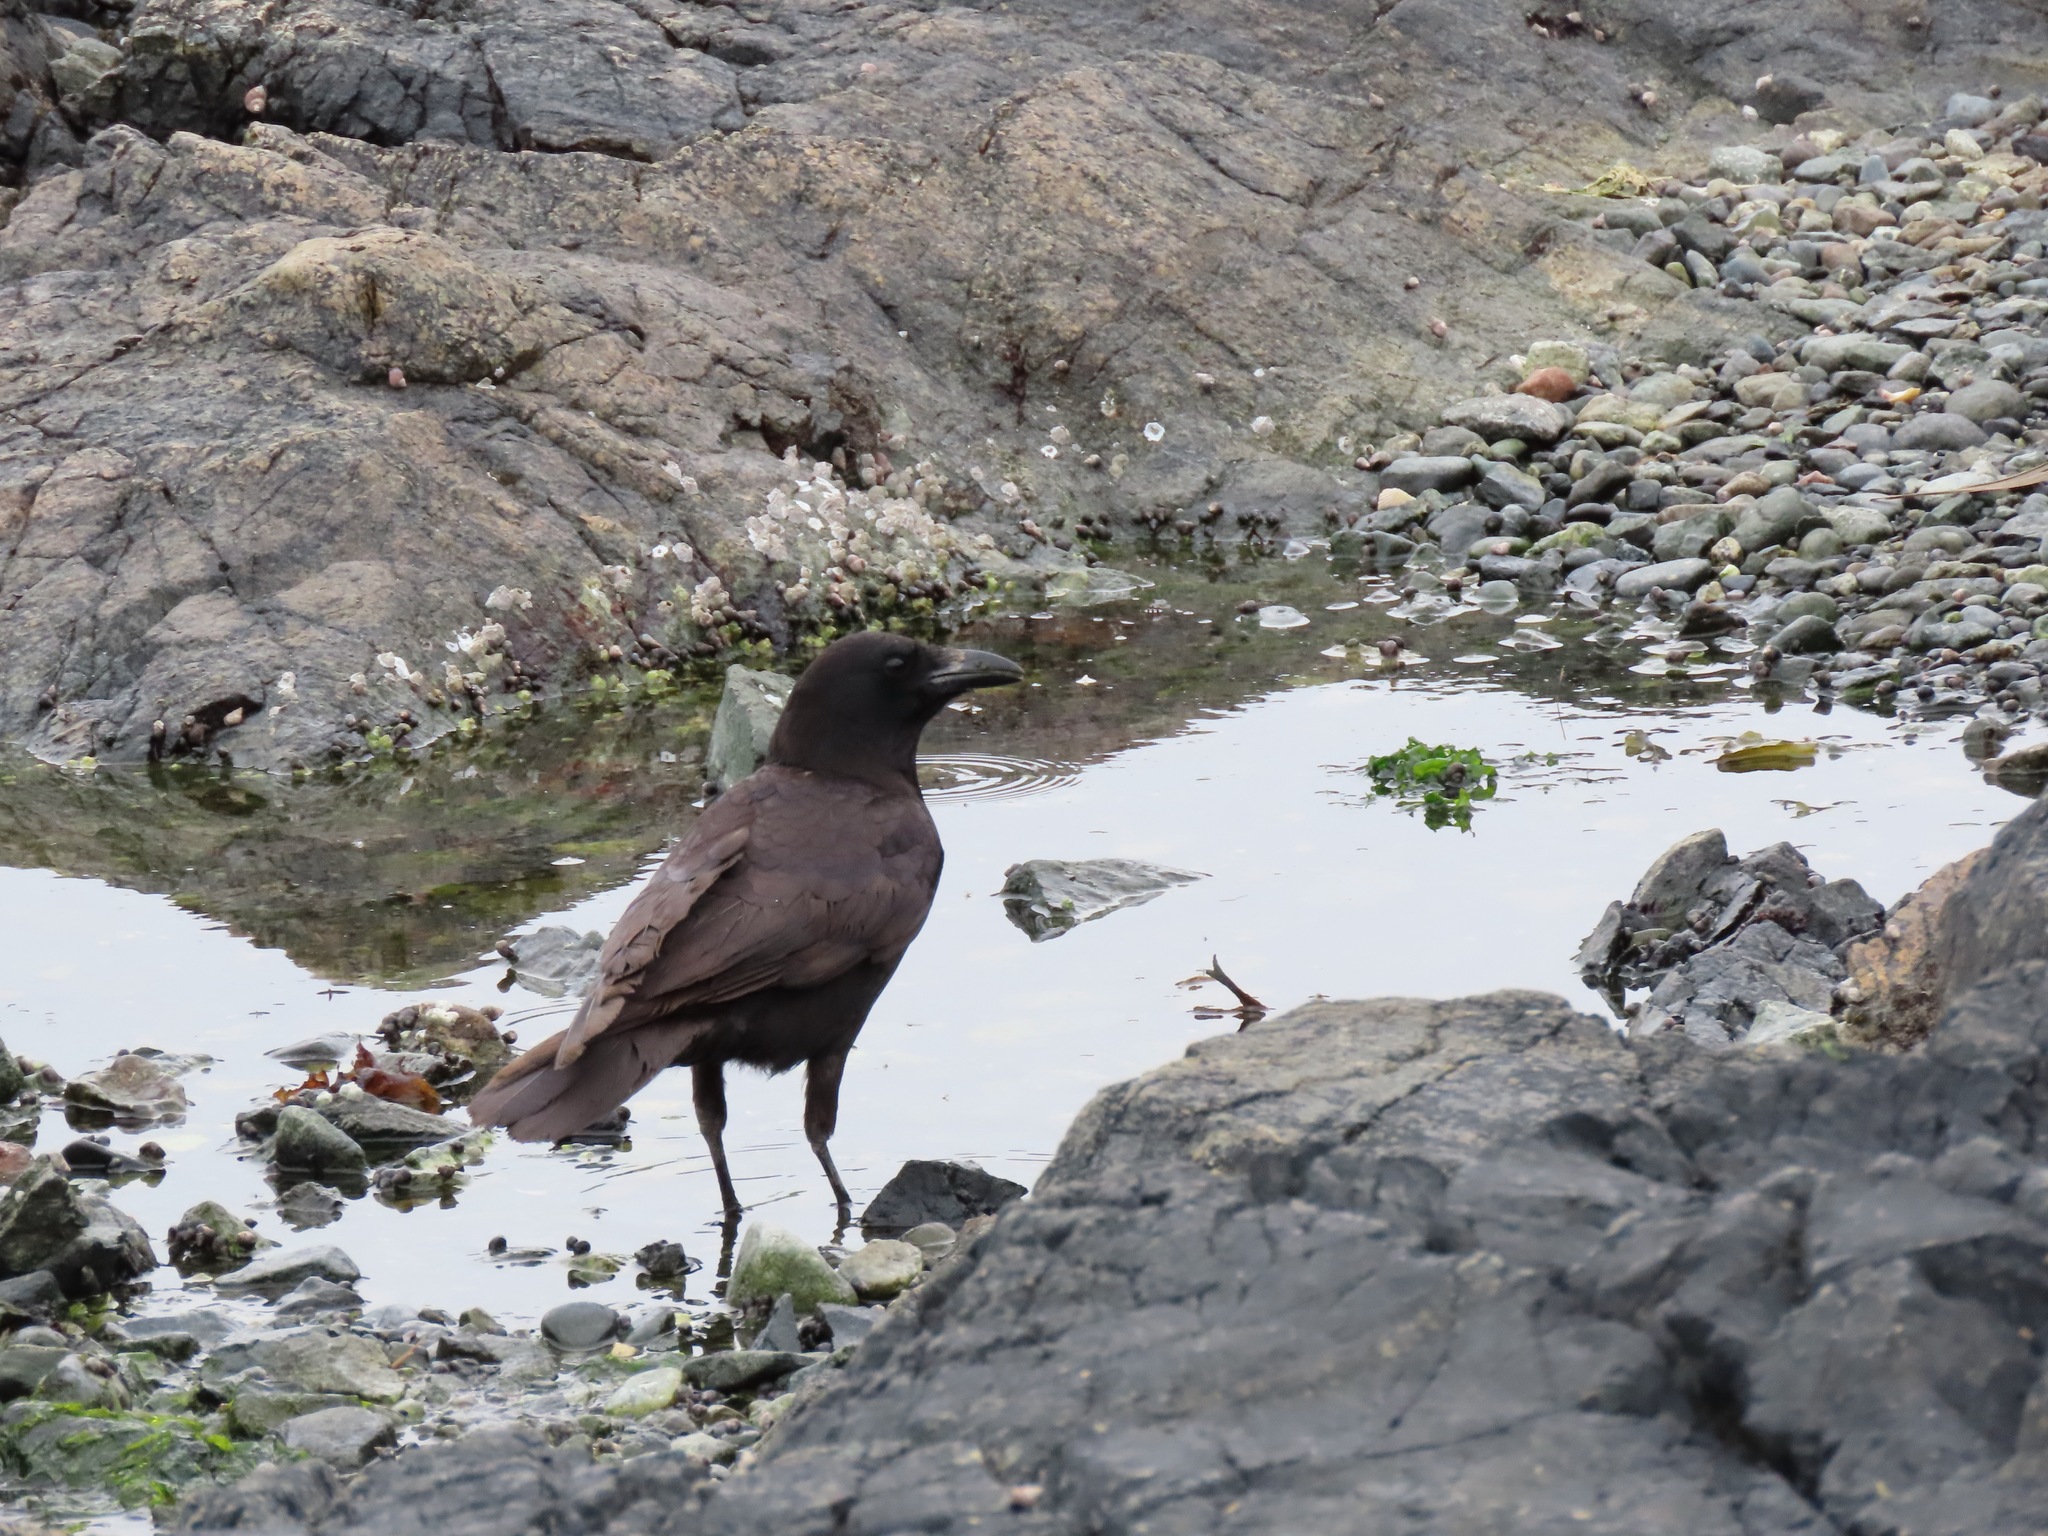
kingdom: Animalia
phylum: Chordata
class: Aves
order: Passeriformes
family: Corvidae
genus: Corvus
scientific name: Corvus brachyrhynchos
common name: American crow
